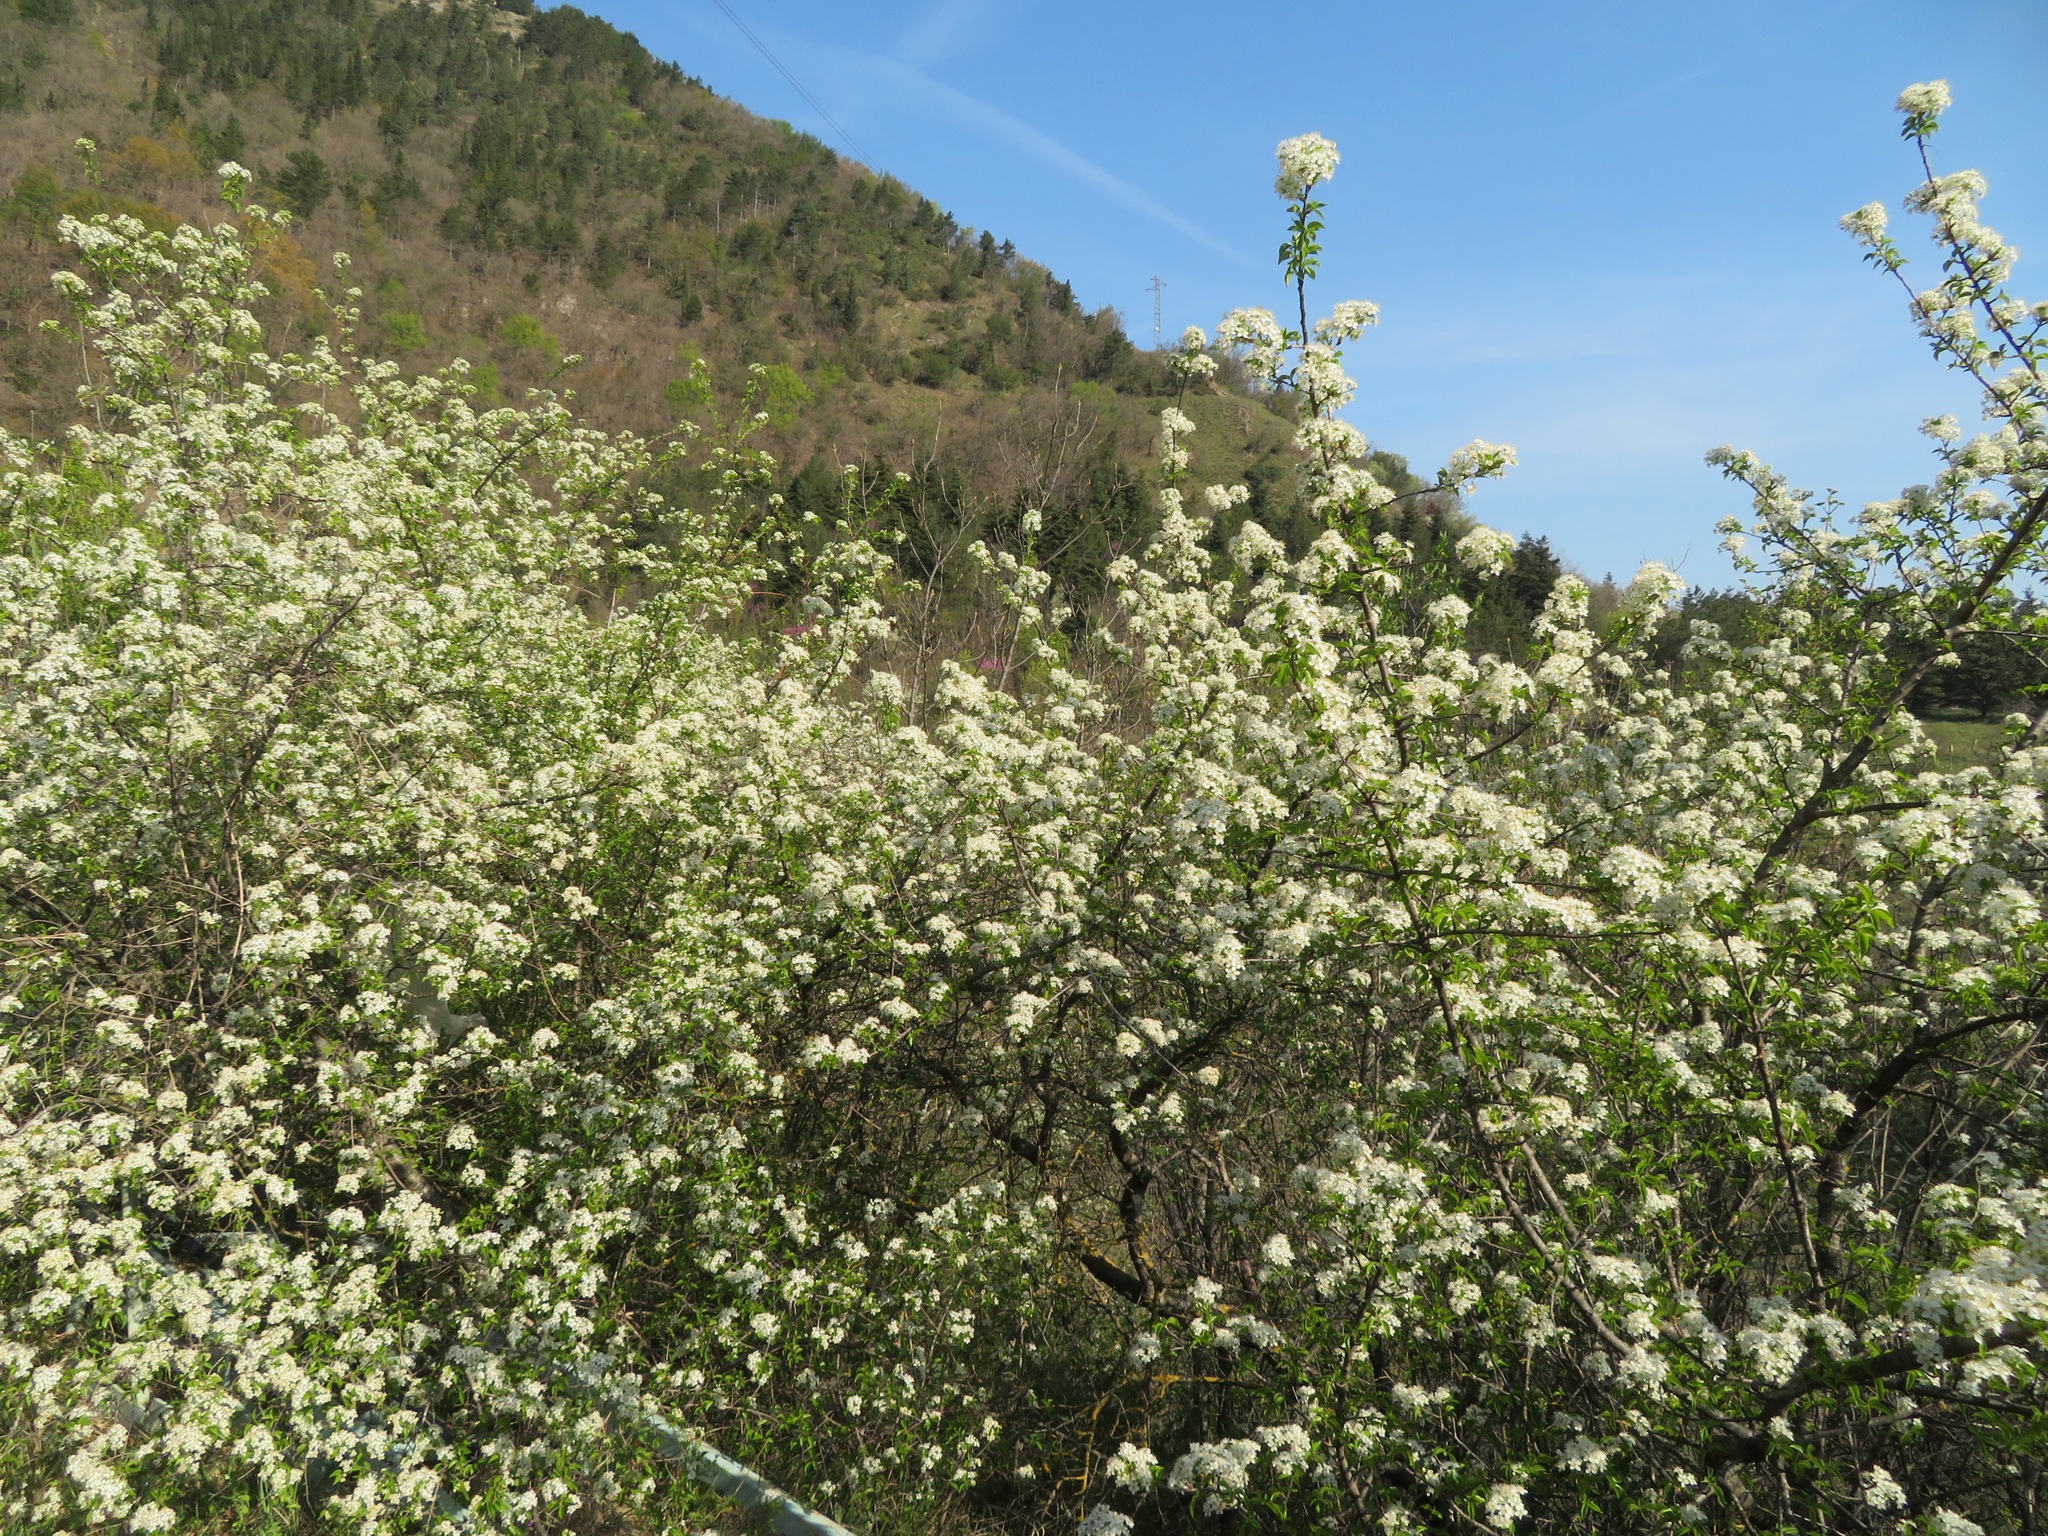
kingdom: Plantae
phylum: Tracheophyta
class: Magnoliopsida
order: Rosales
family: Rosaceae
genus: Prunus
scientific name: Prunus mahaleb
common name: Mahaleb cherry
